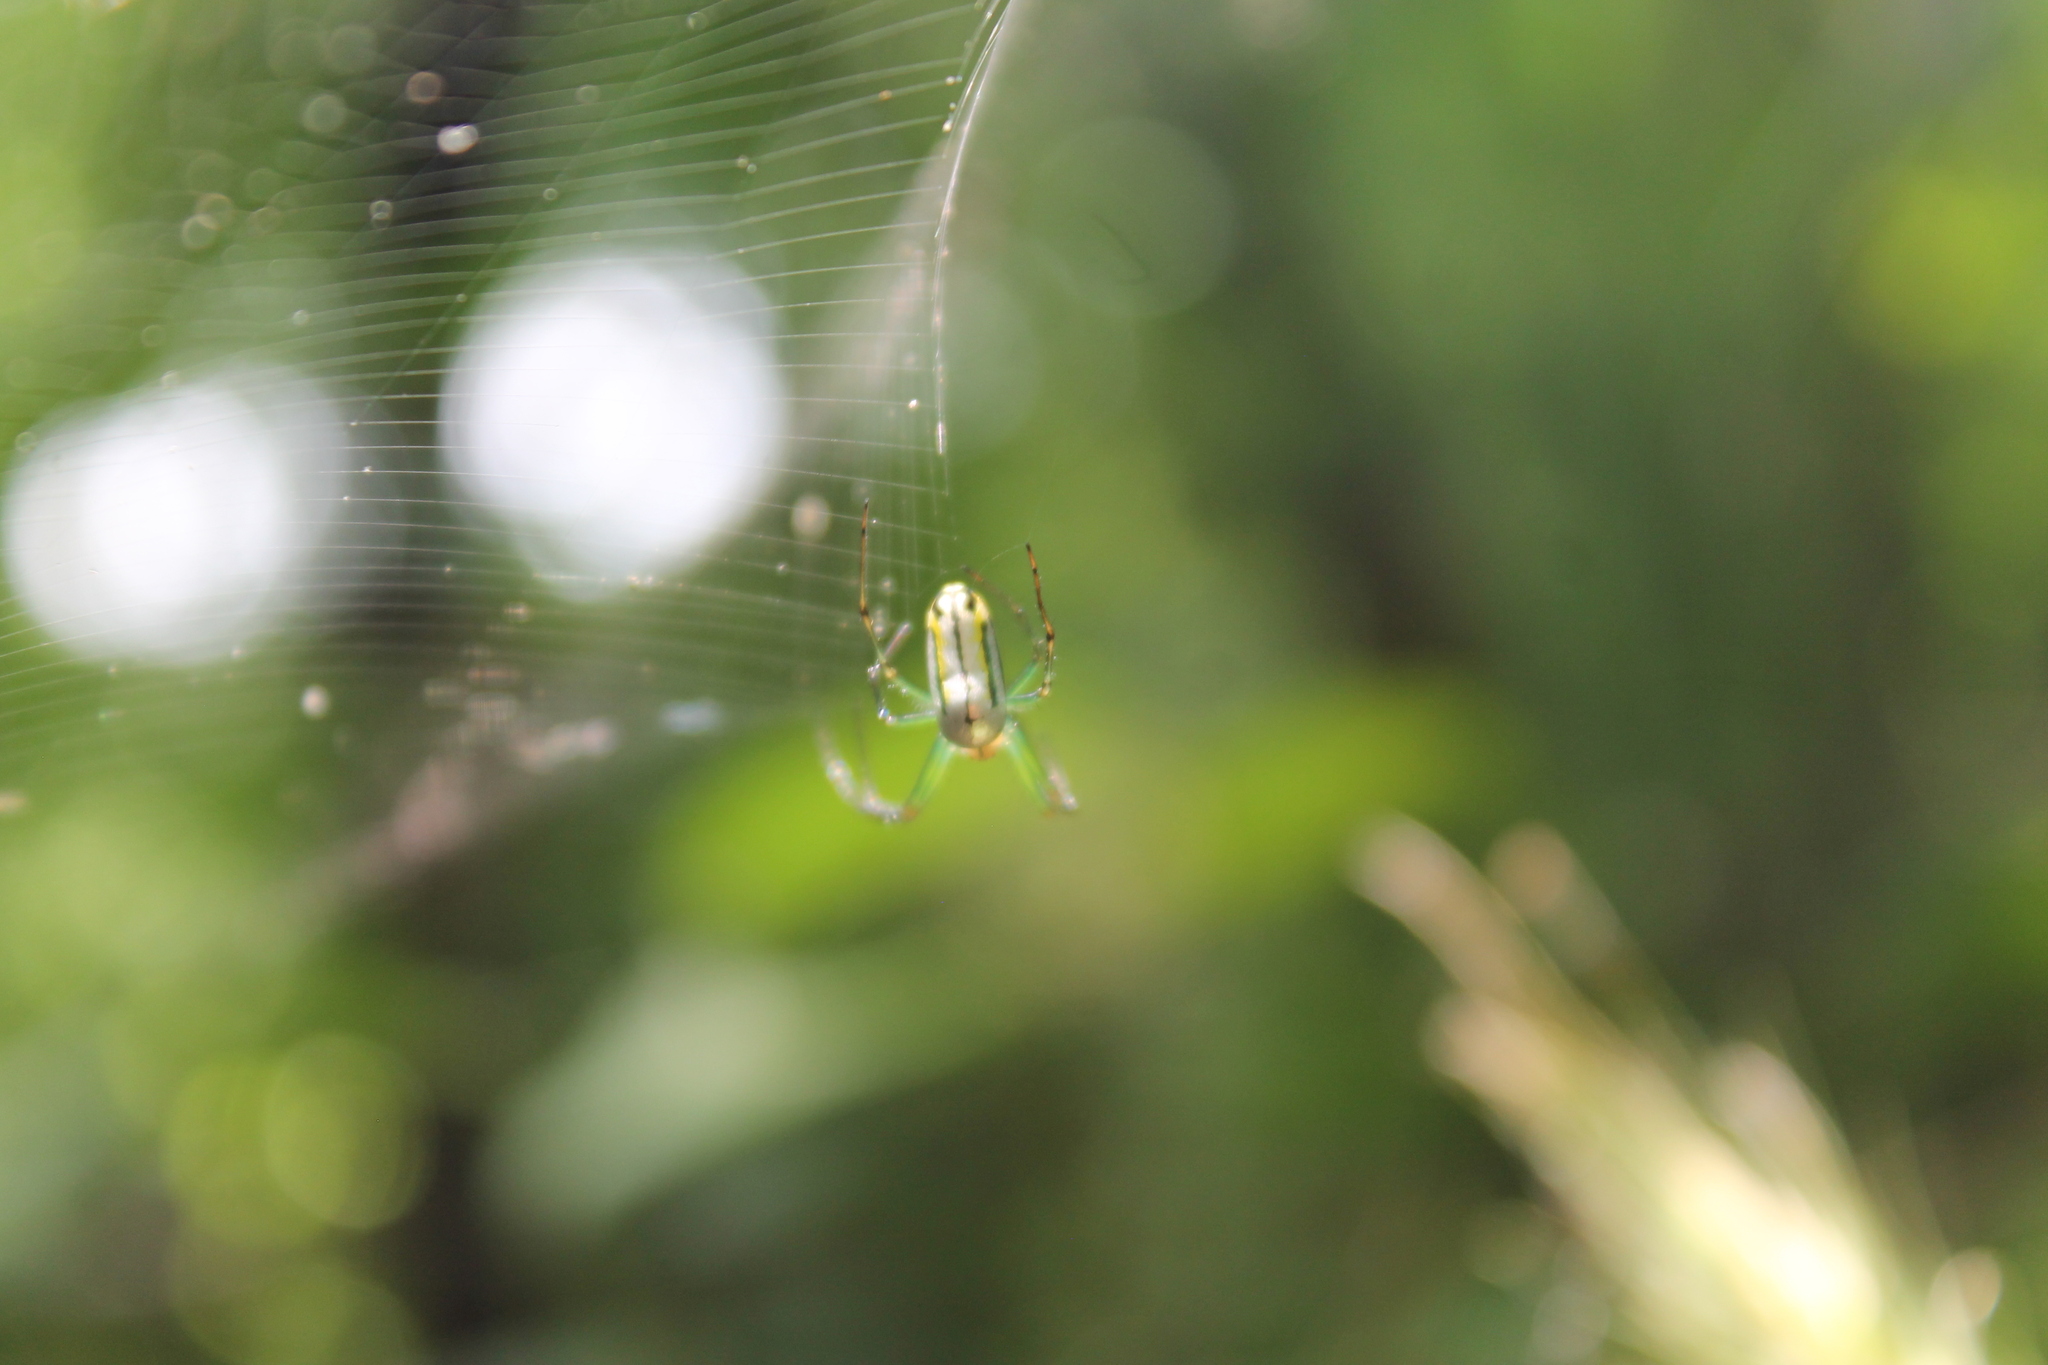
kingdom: Animalia
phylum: Arthropoda
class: Arachnida
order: Araneae
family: Tetragnathidae
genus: Leucauge
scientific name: Leucauge venusta
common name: Longjawed orb weavers
